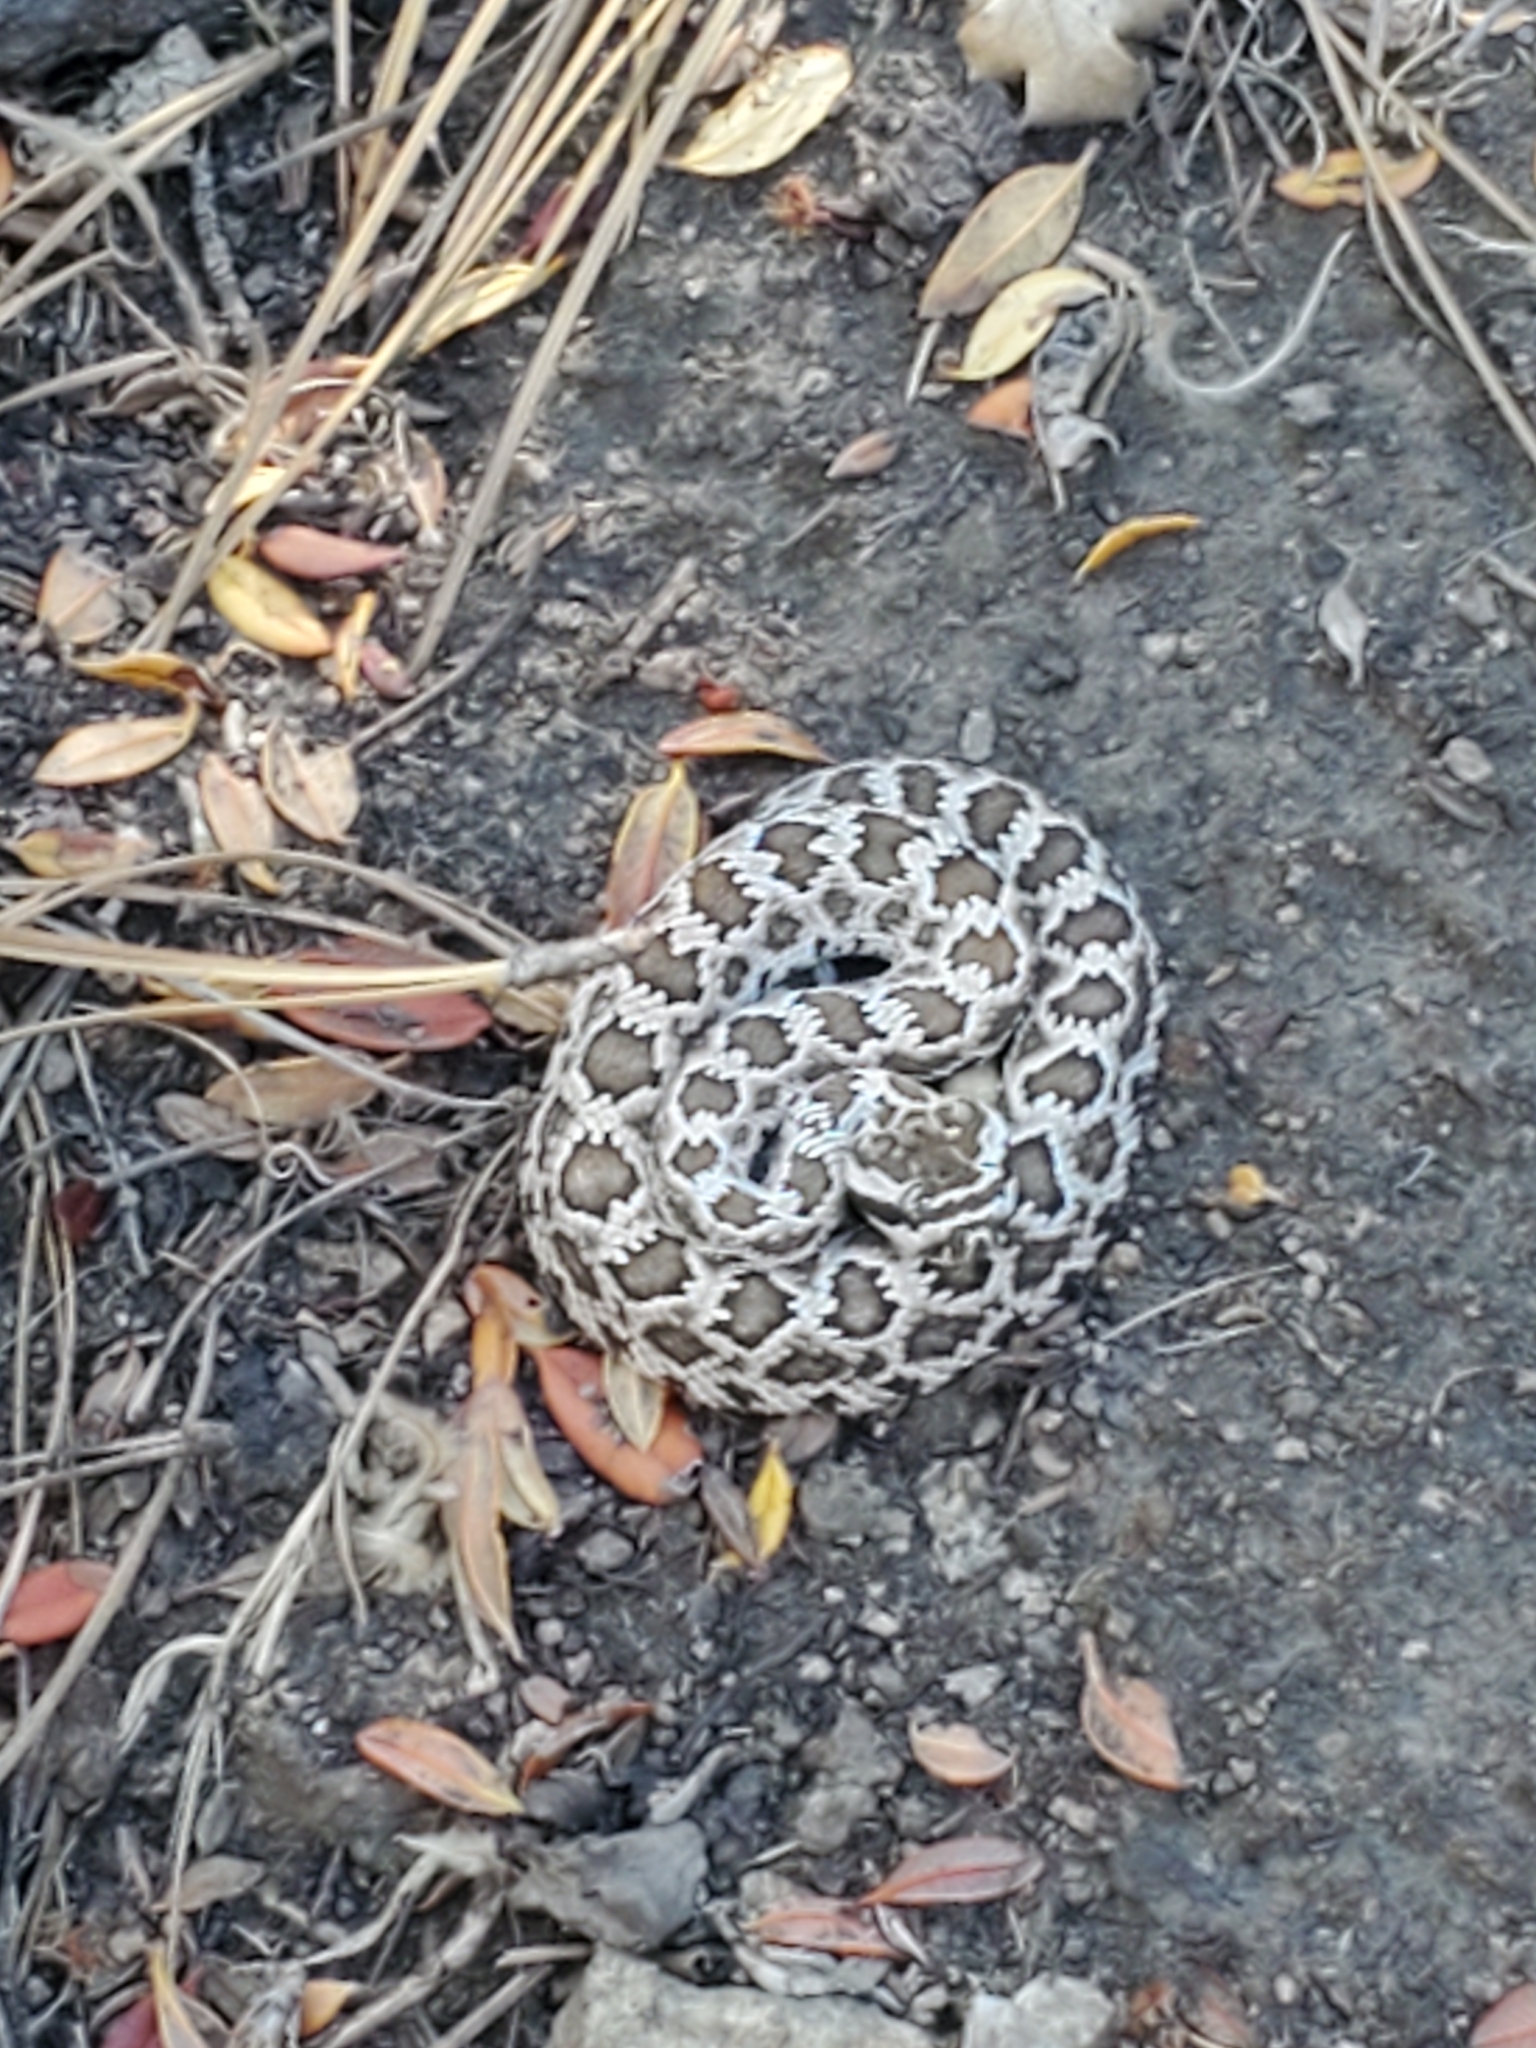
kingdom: Animalia
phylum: Chordata
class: Squamata
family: Viperidae
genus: Crotalus
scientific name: Crotalus oreganus
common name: Abyssus
